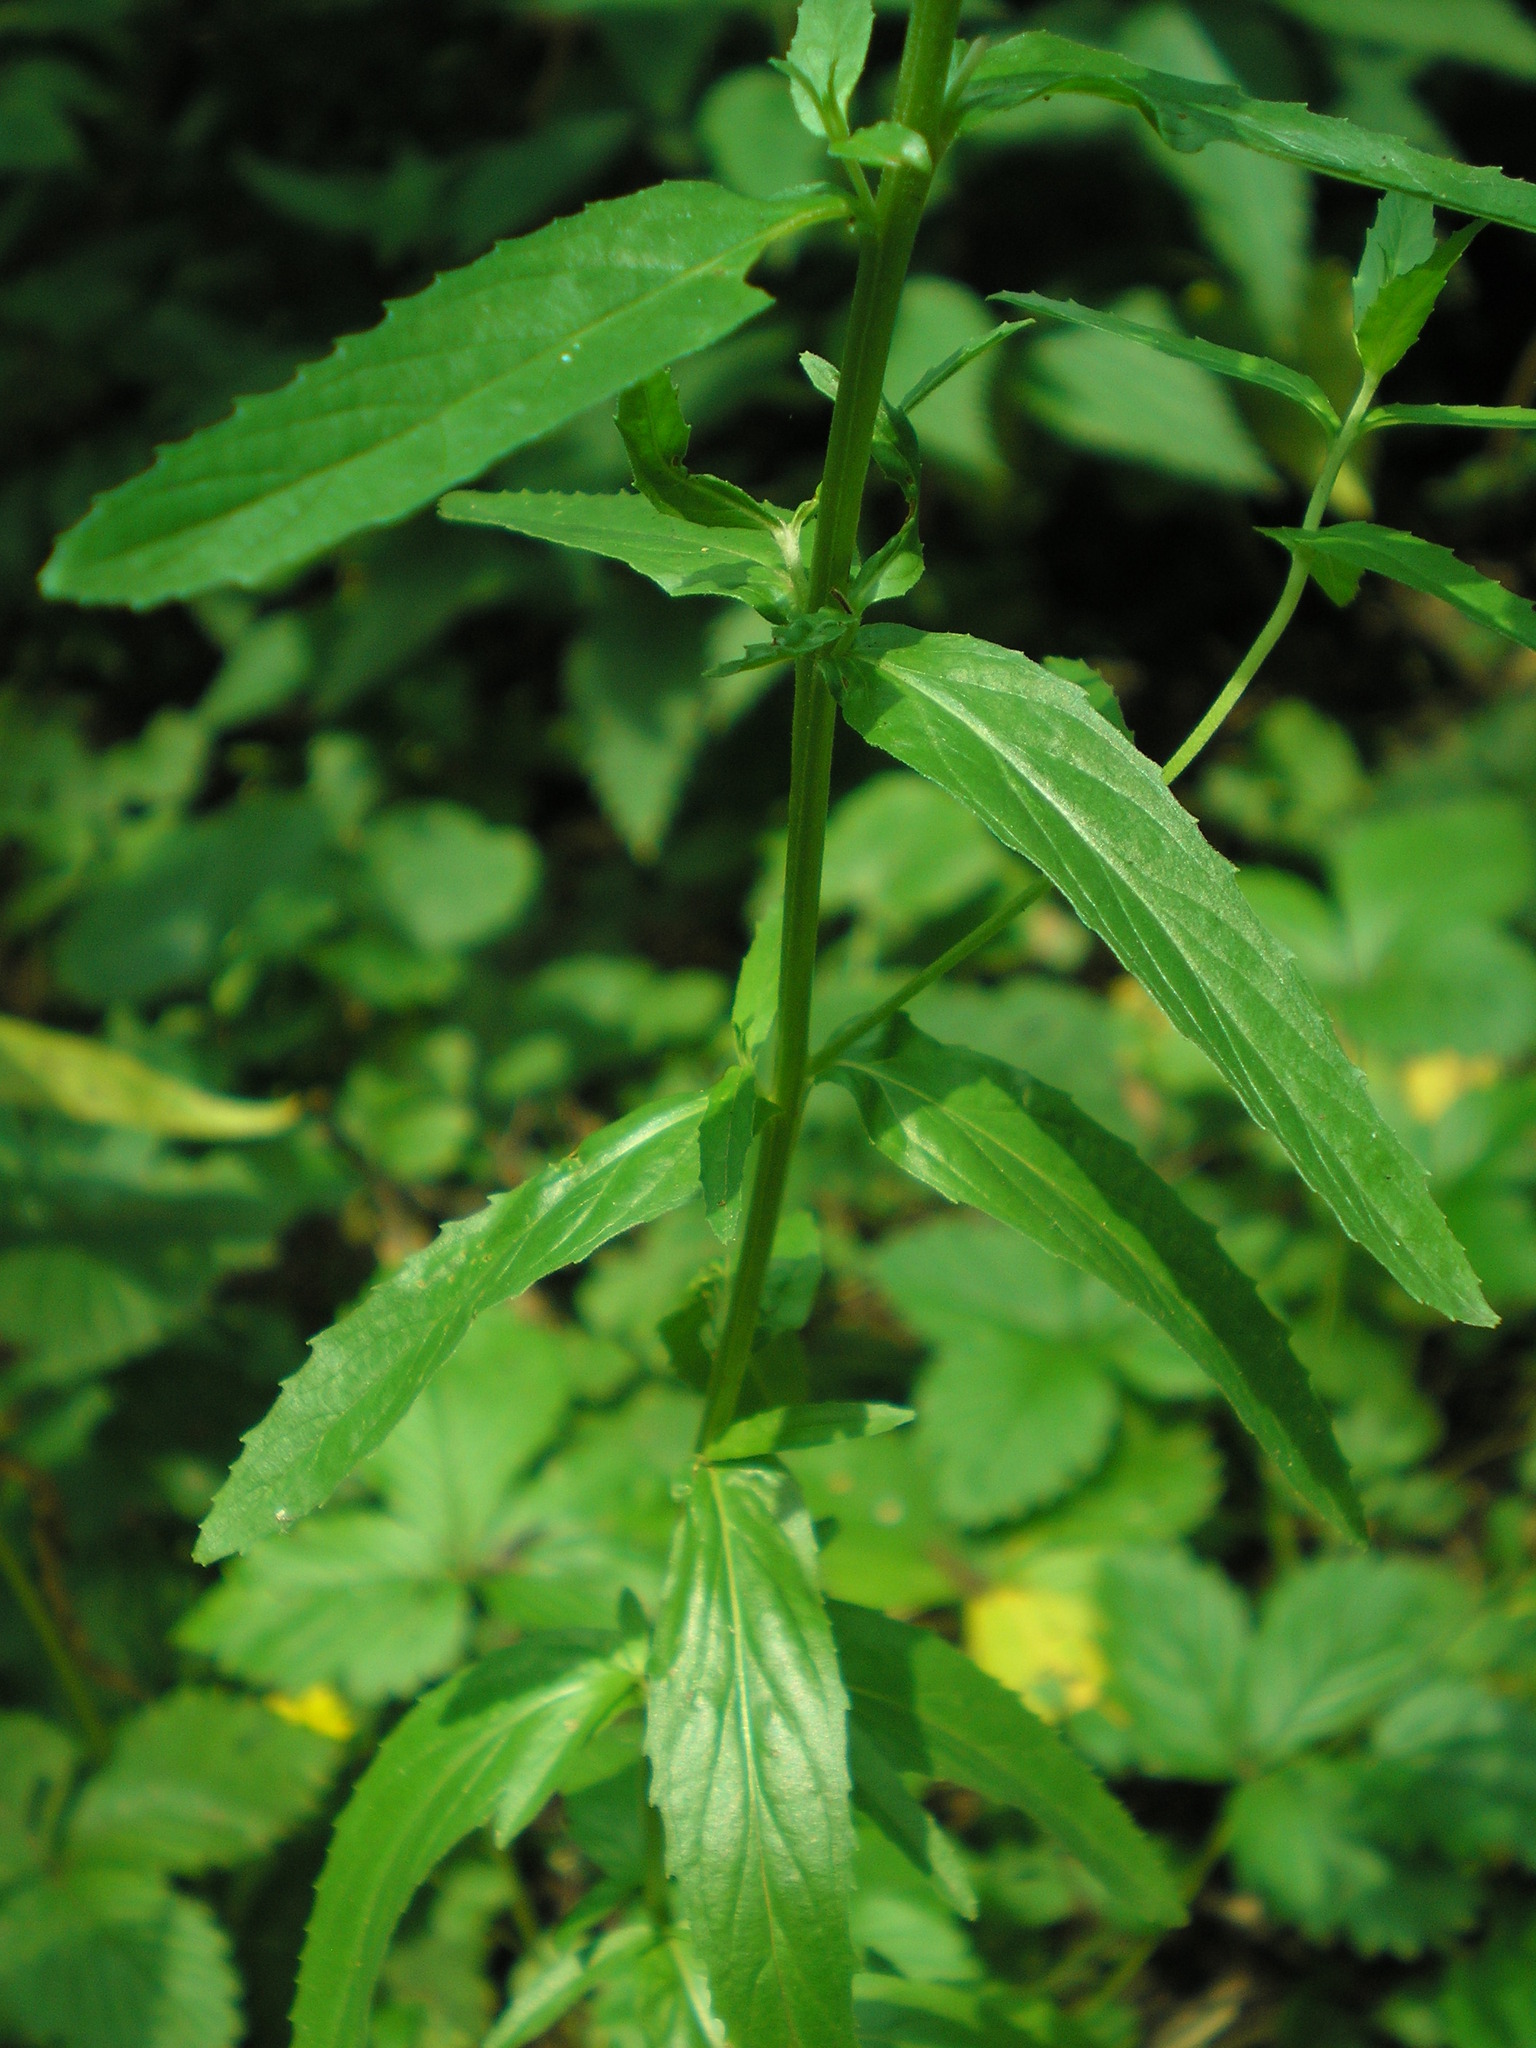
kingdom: Plantae
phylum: Tracheophyta
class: Magnoliopsida
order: Myrtales
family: Onagraceae
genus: Epilobium
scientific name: Epilobium tetragonum
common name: Square-stemmed willowherb
